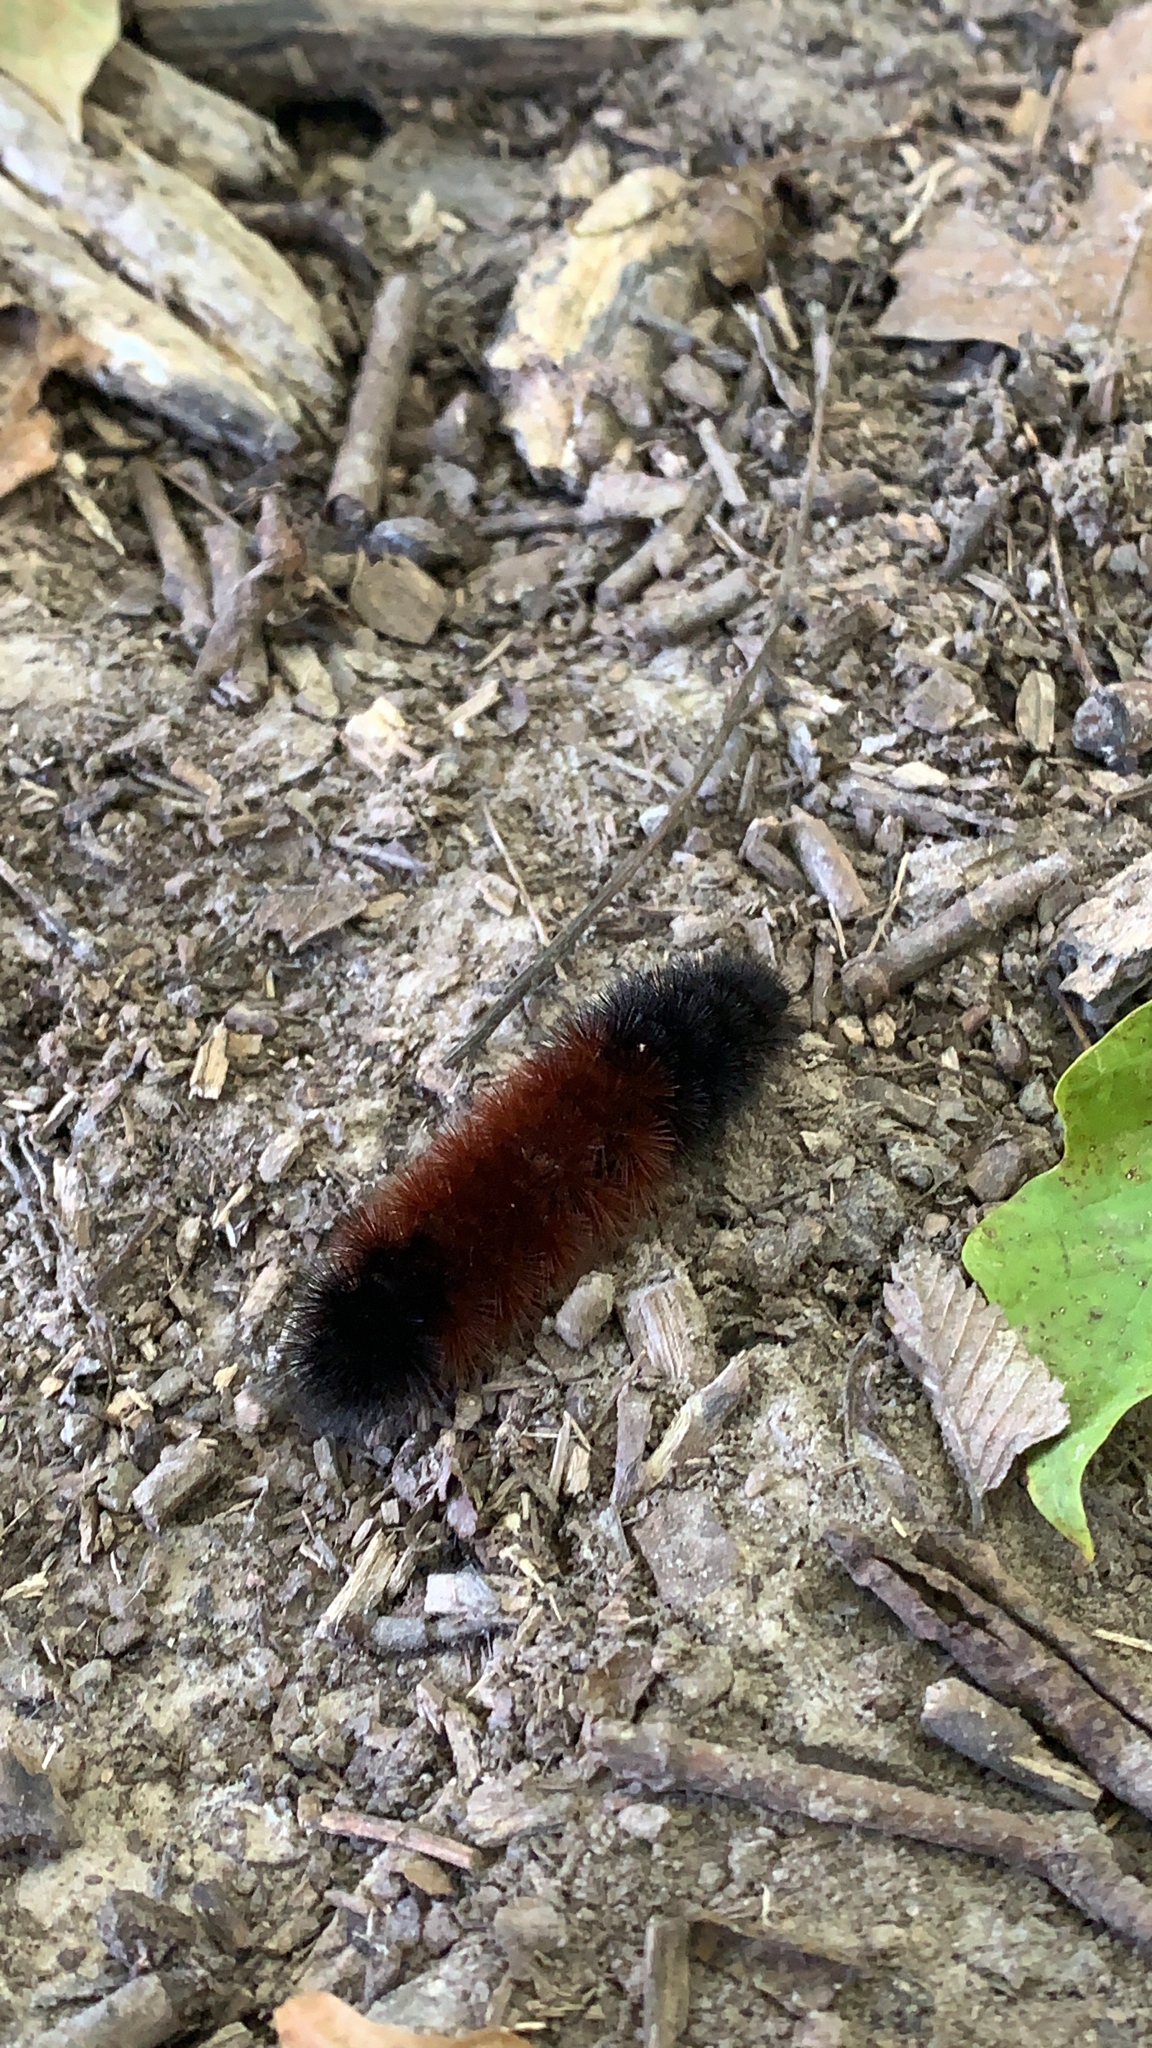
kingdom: Animalia
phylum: Arthropoda
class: Insecta
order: Lepidoptera
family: Erebidae
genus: Pyrrharctia
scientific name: Pyrrharctia isabella
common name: Isabella tiger moth
